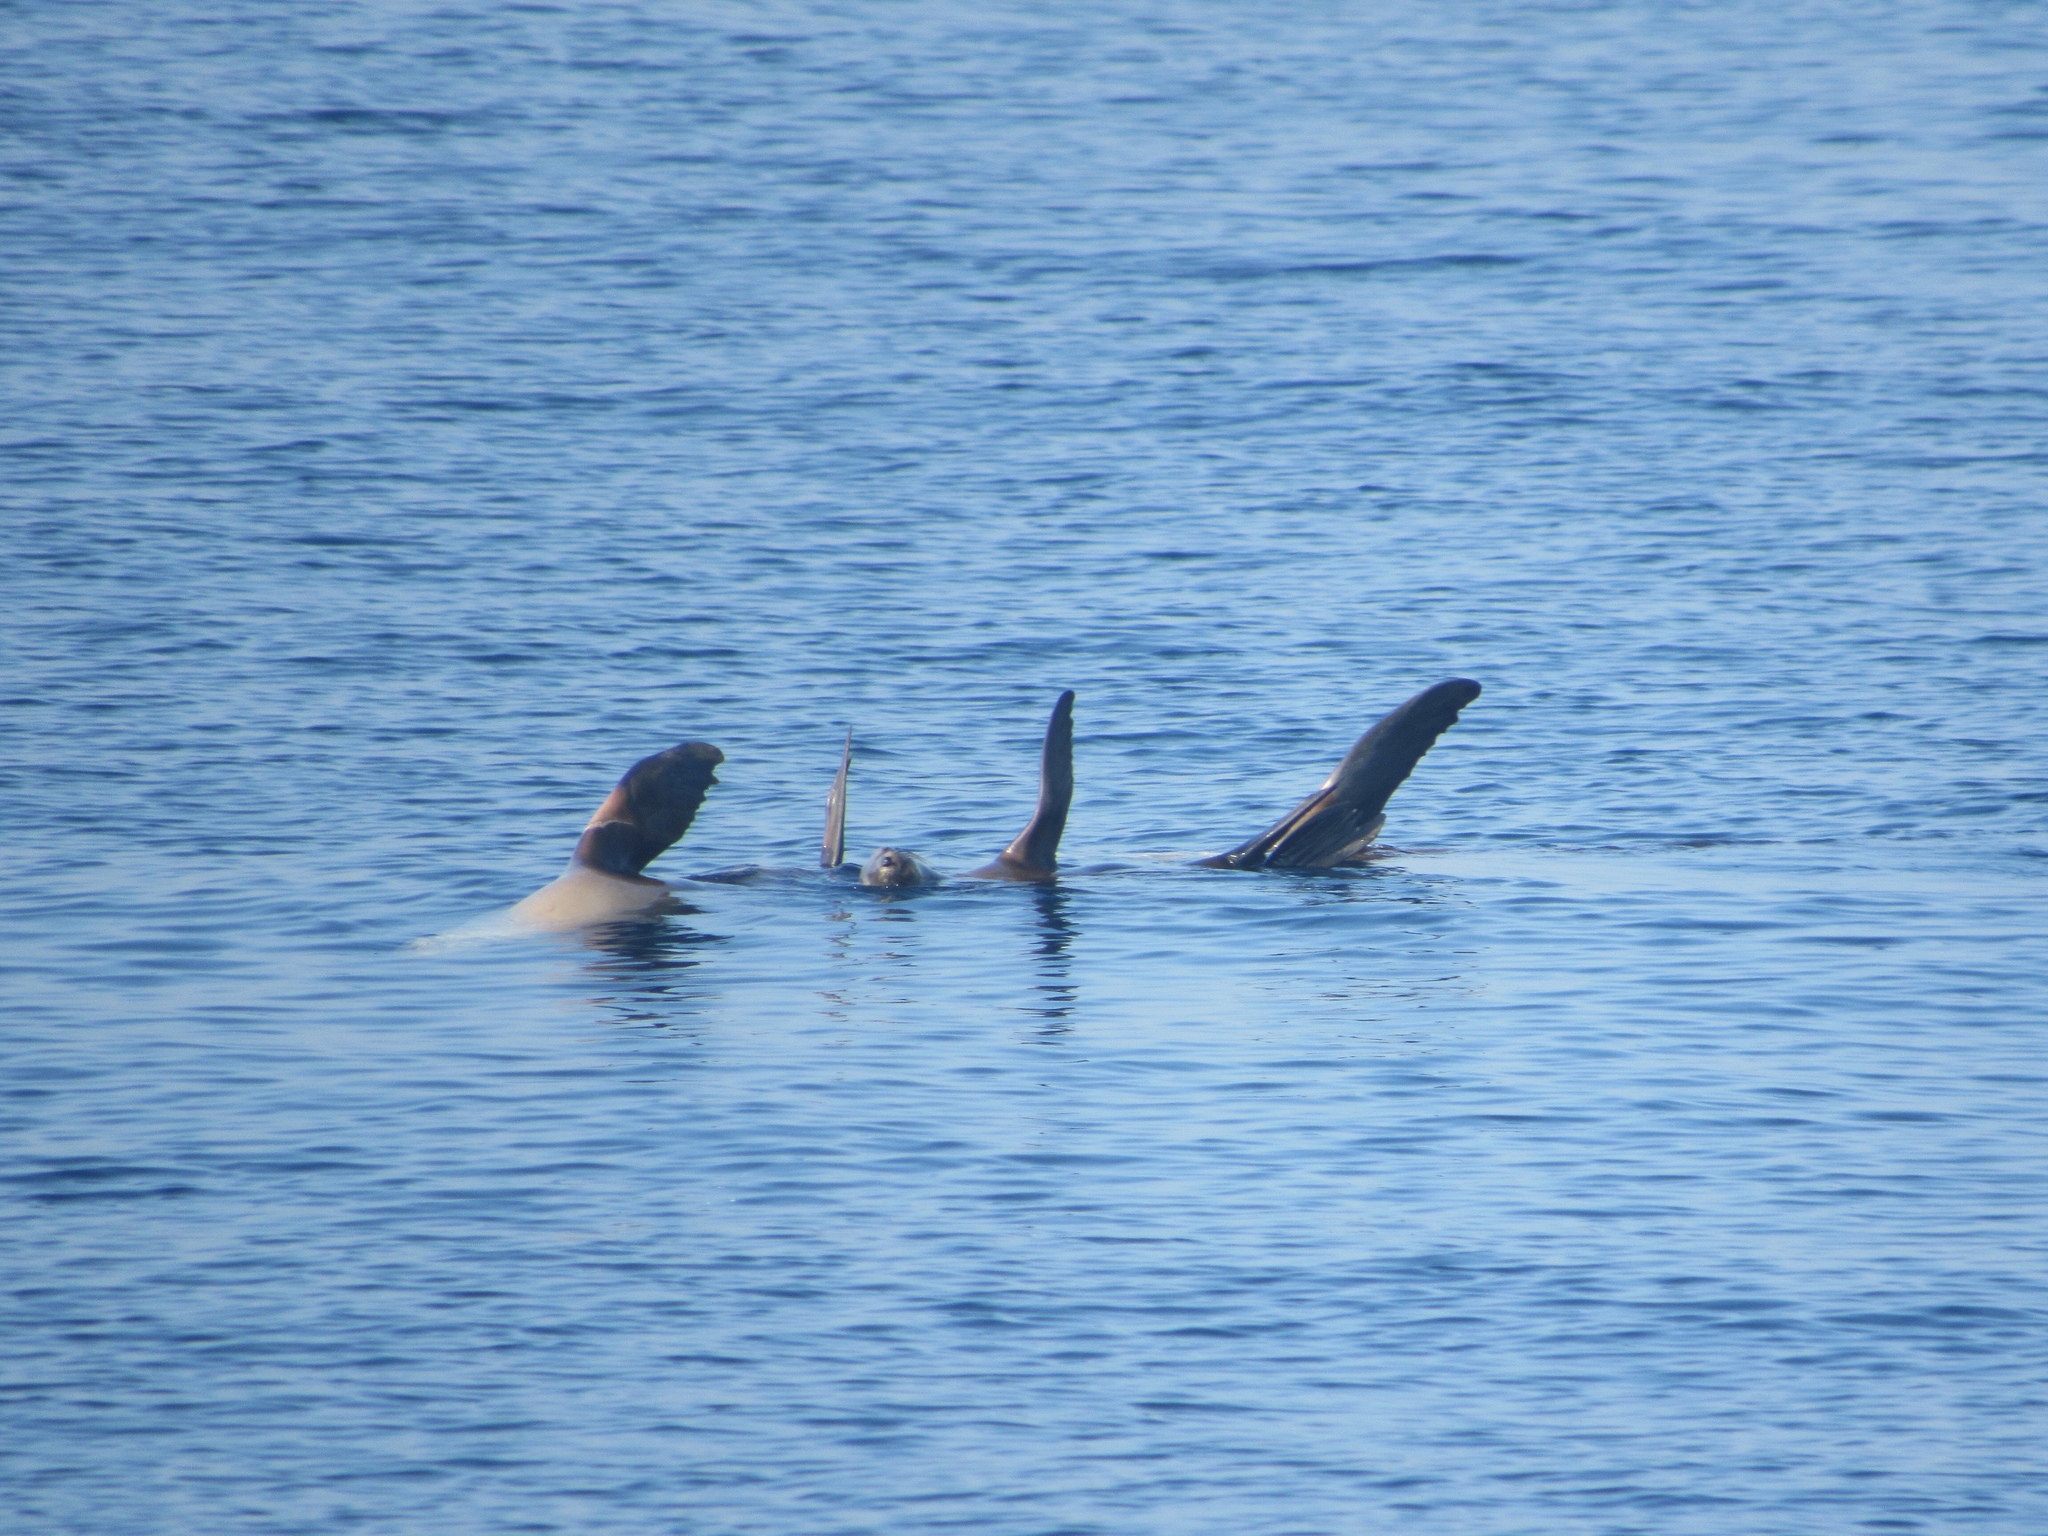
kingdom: Animalia
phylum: Chordata
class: Mammalia
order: Carnivora
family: Otariidae
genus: Zalophus
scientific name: Zalophus californianus
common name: California sea lion
